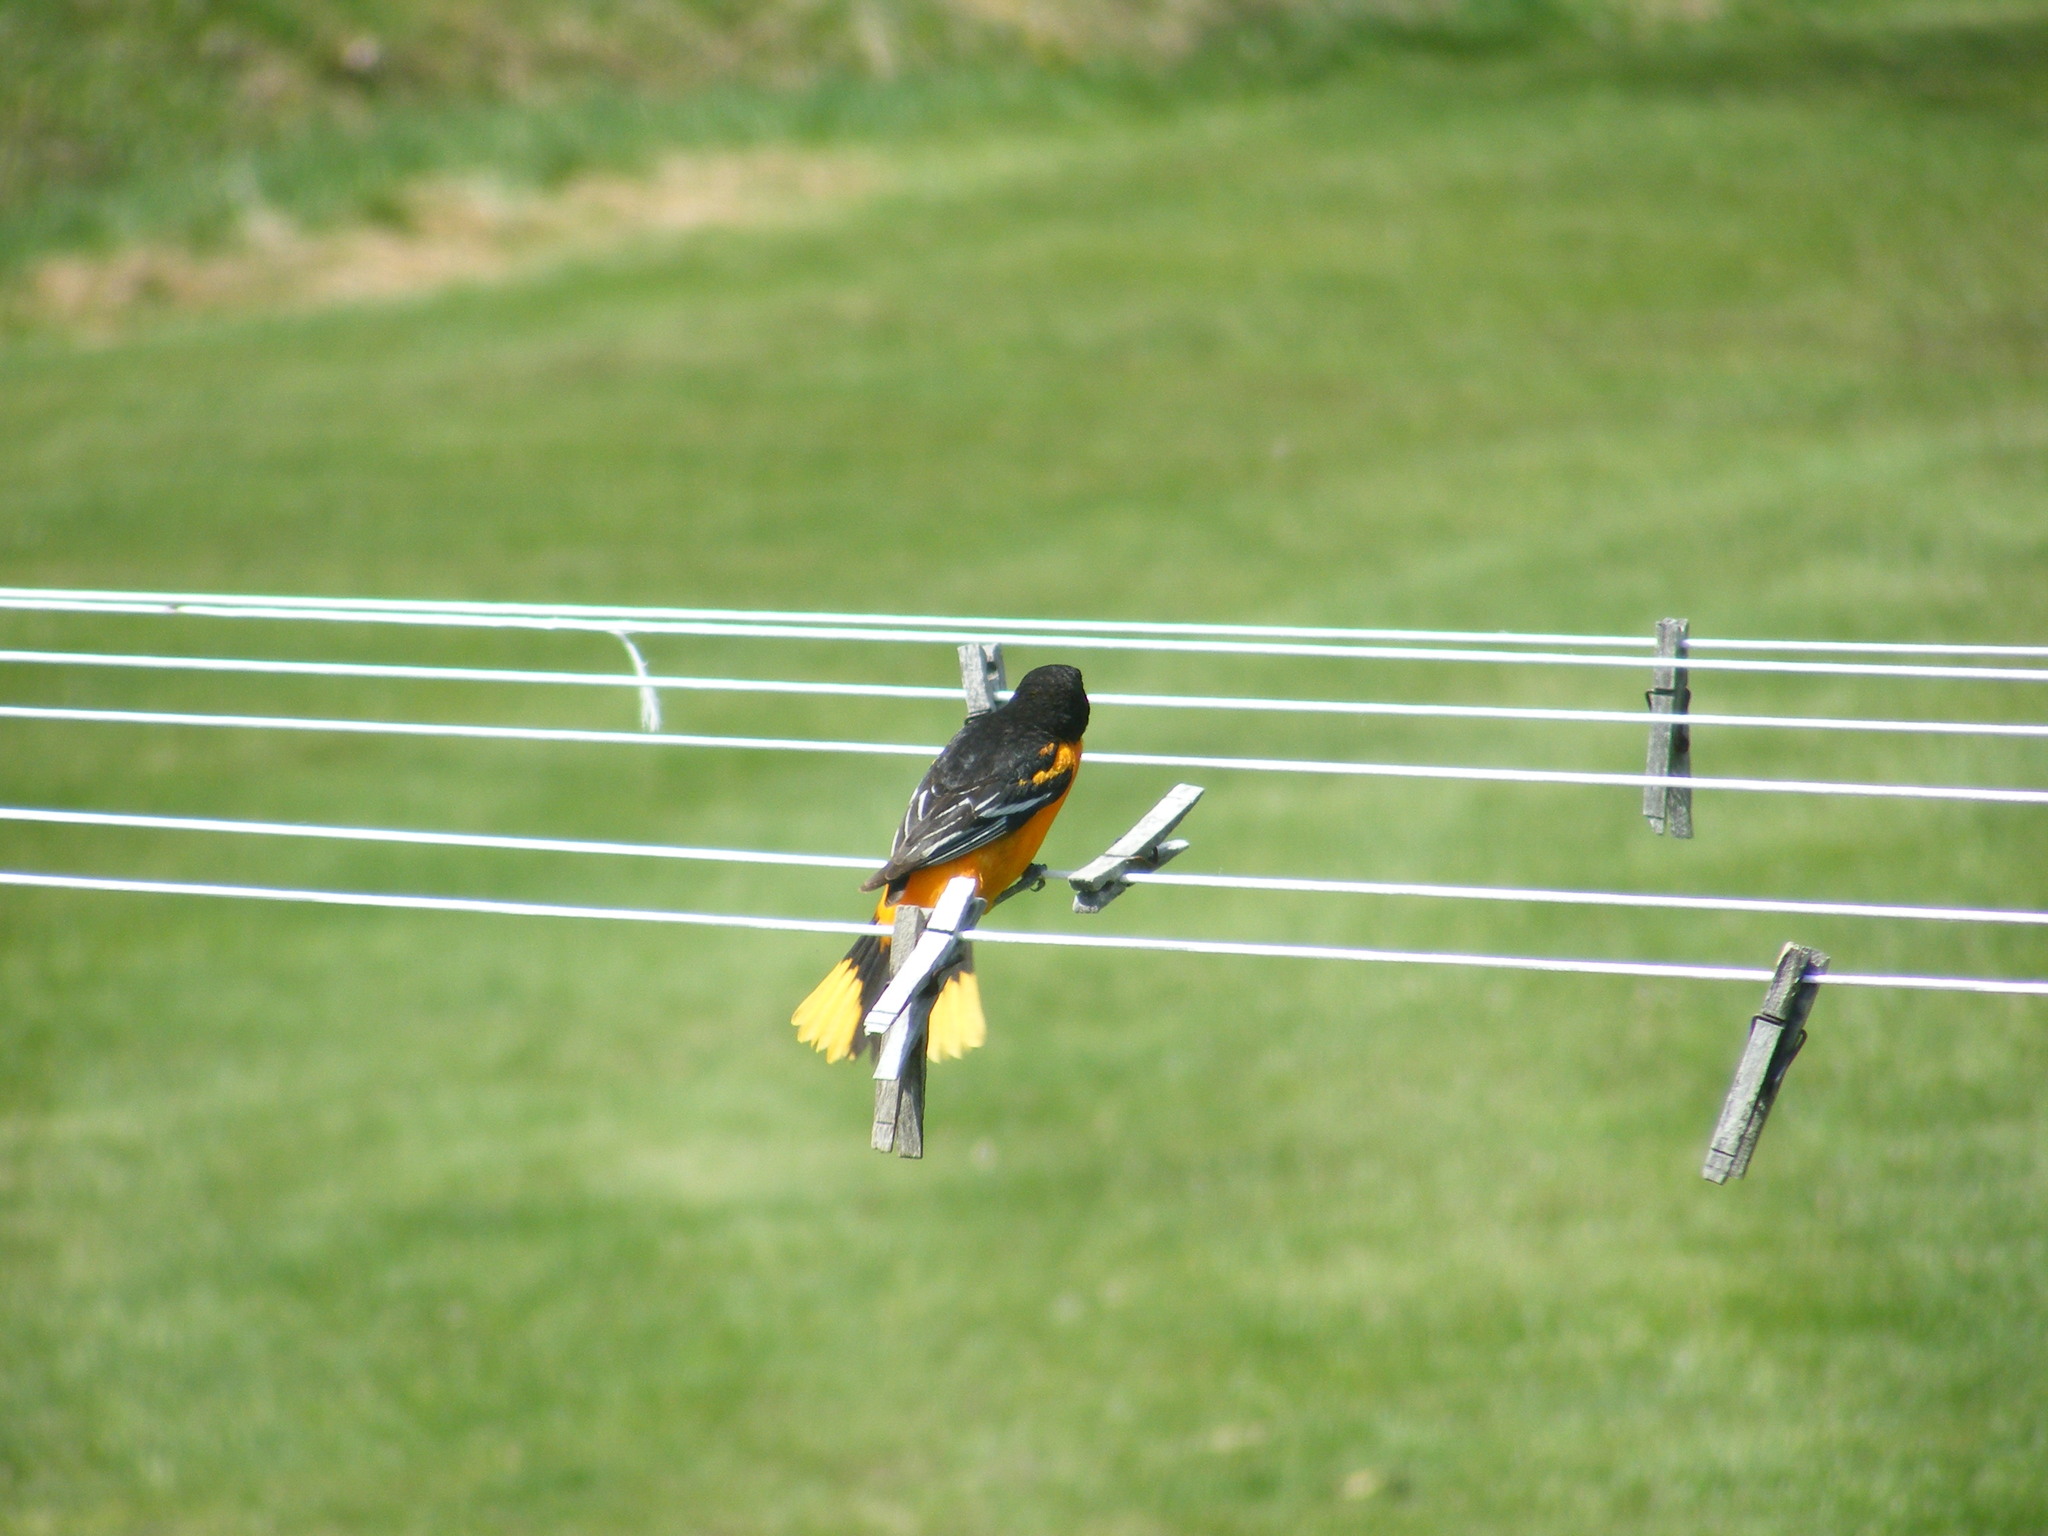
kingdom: Animalia
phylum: Chordata
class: Aves
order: Passeriformes
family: Icteridae
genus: Icterus
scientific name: Icterus galbula
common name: Baltimore oriole
